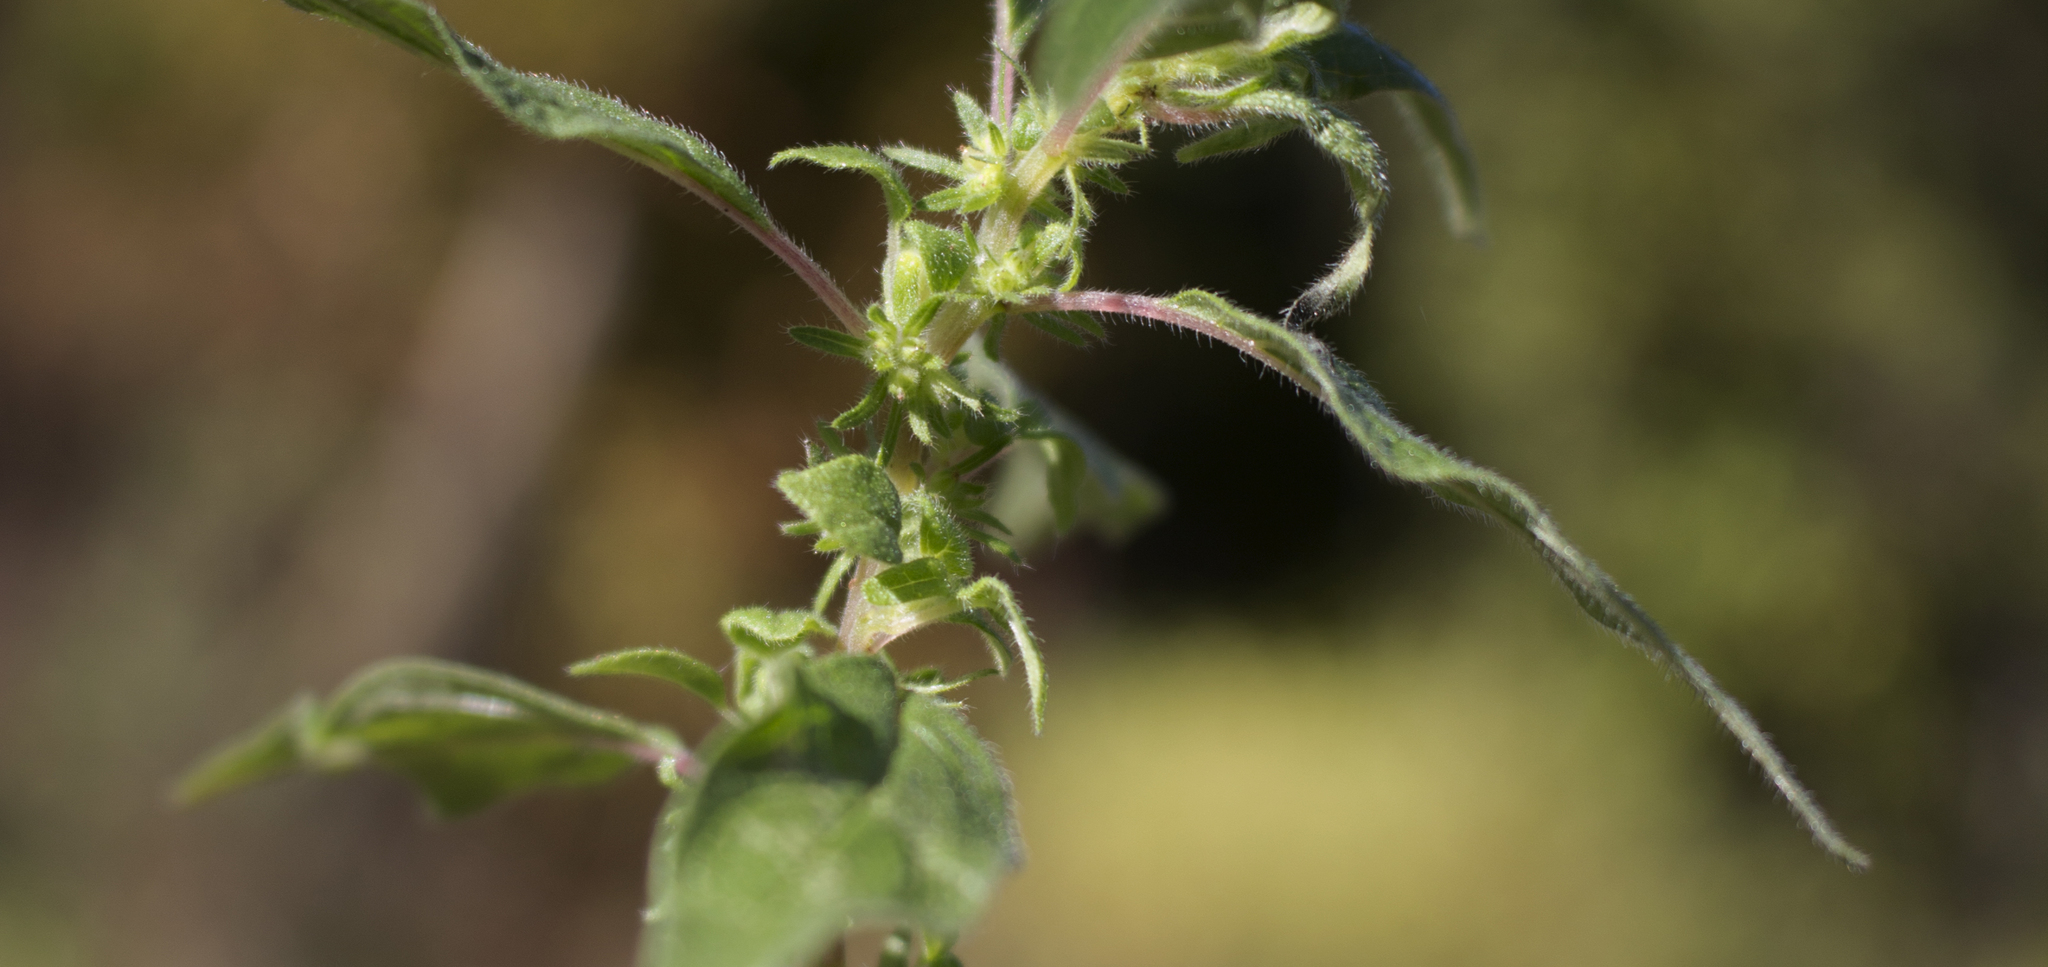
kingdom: Plantae
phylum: Tracheophyta
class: Magnoliopsida
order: Rosales
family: Urticaceae
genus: Parietaria
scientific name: Parietaria pensylvanica
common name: Pennsylvania pellitory
